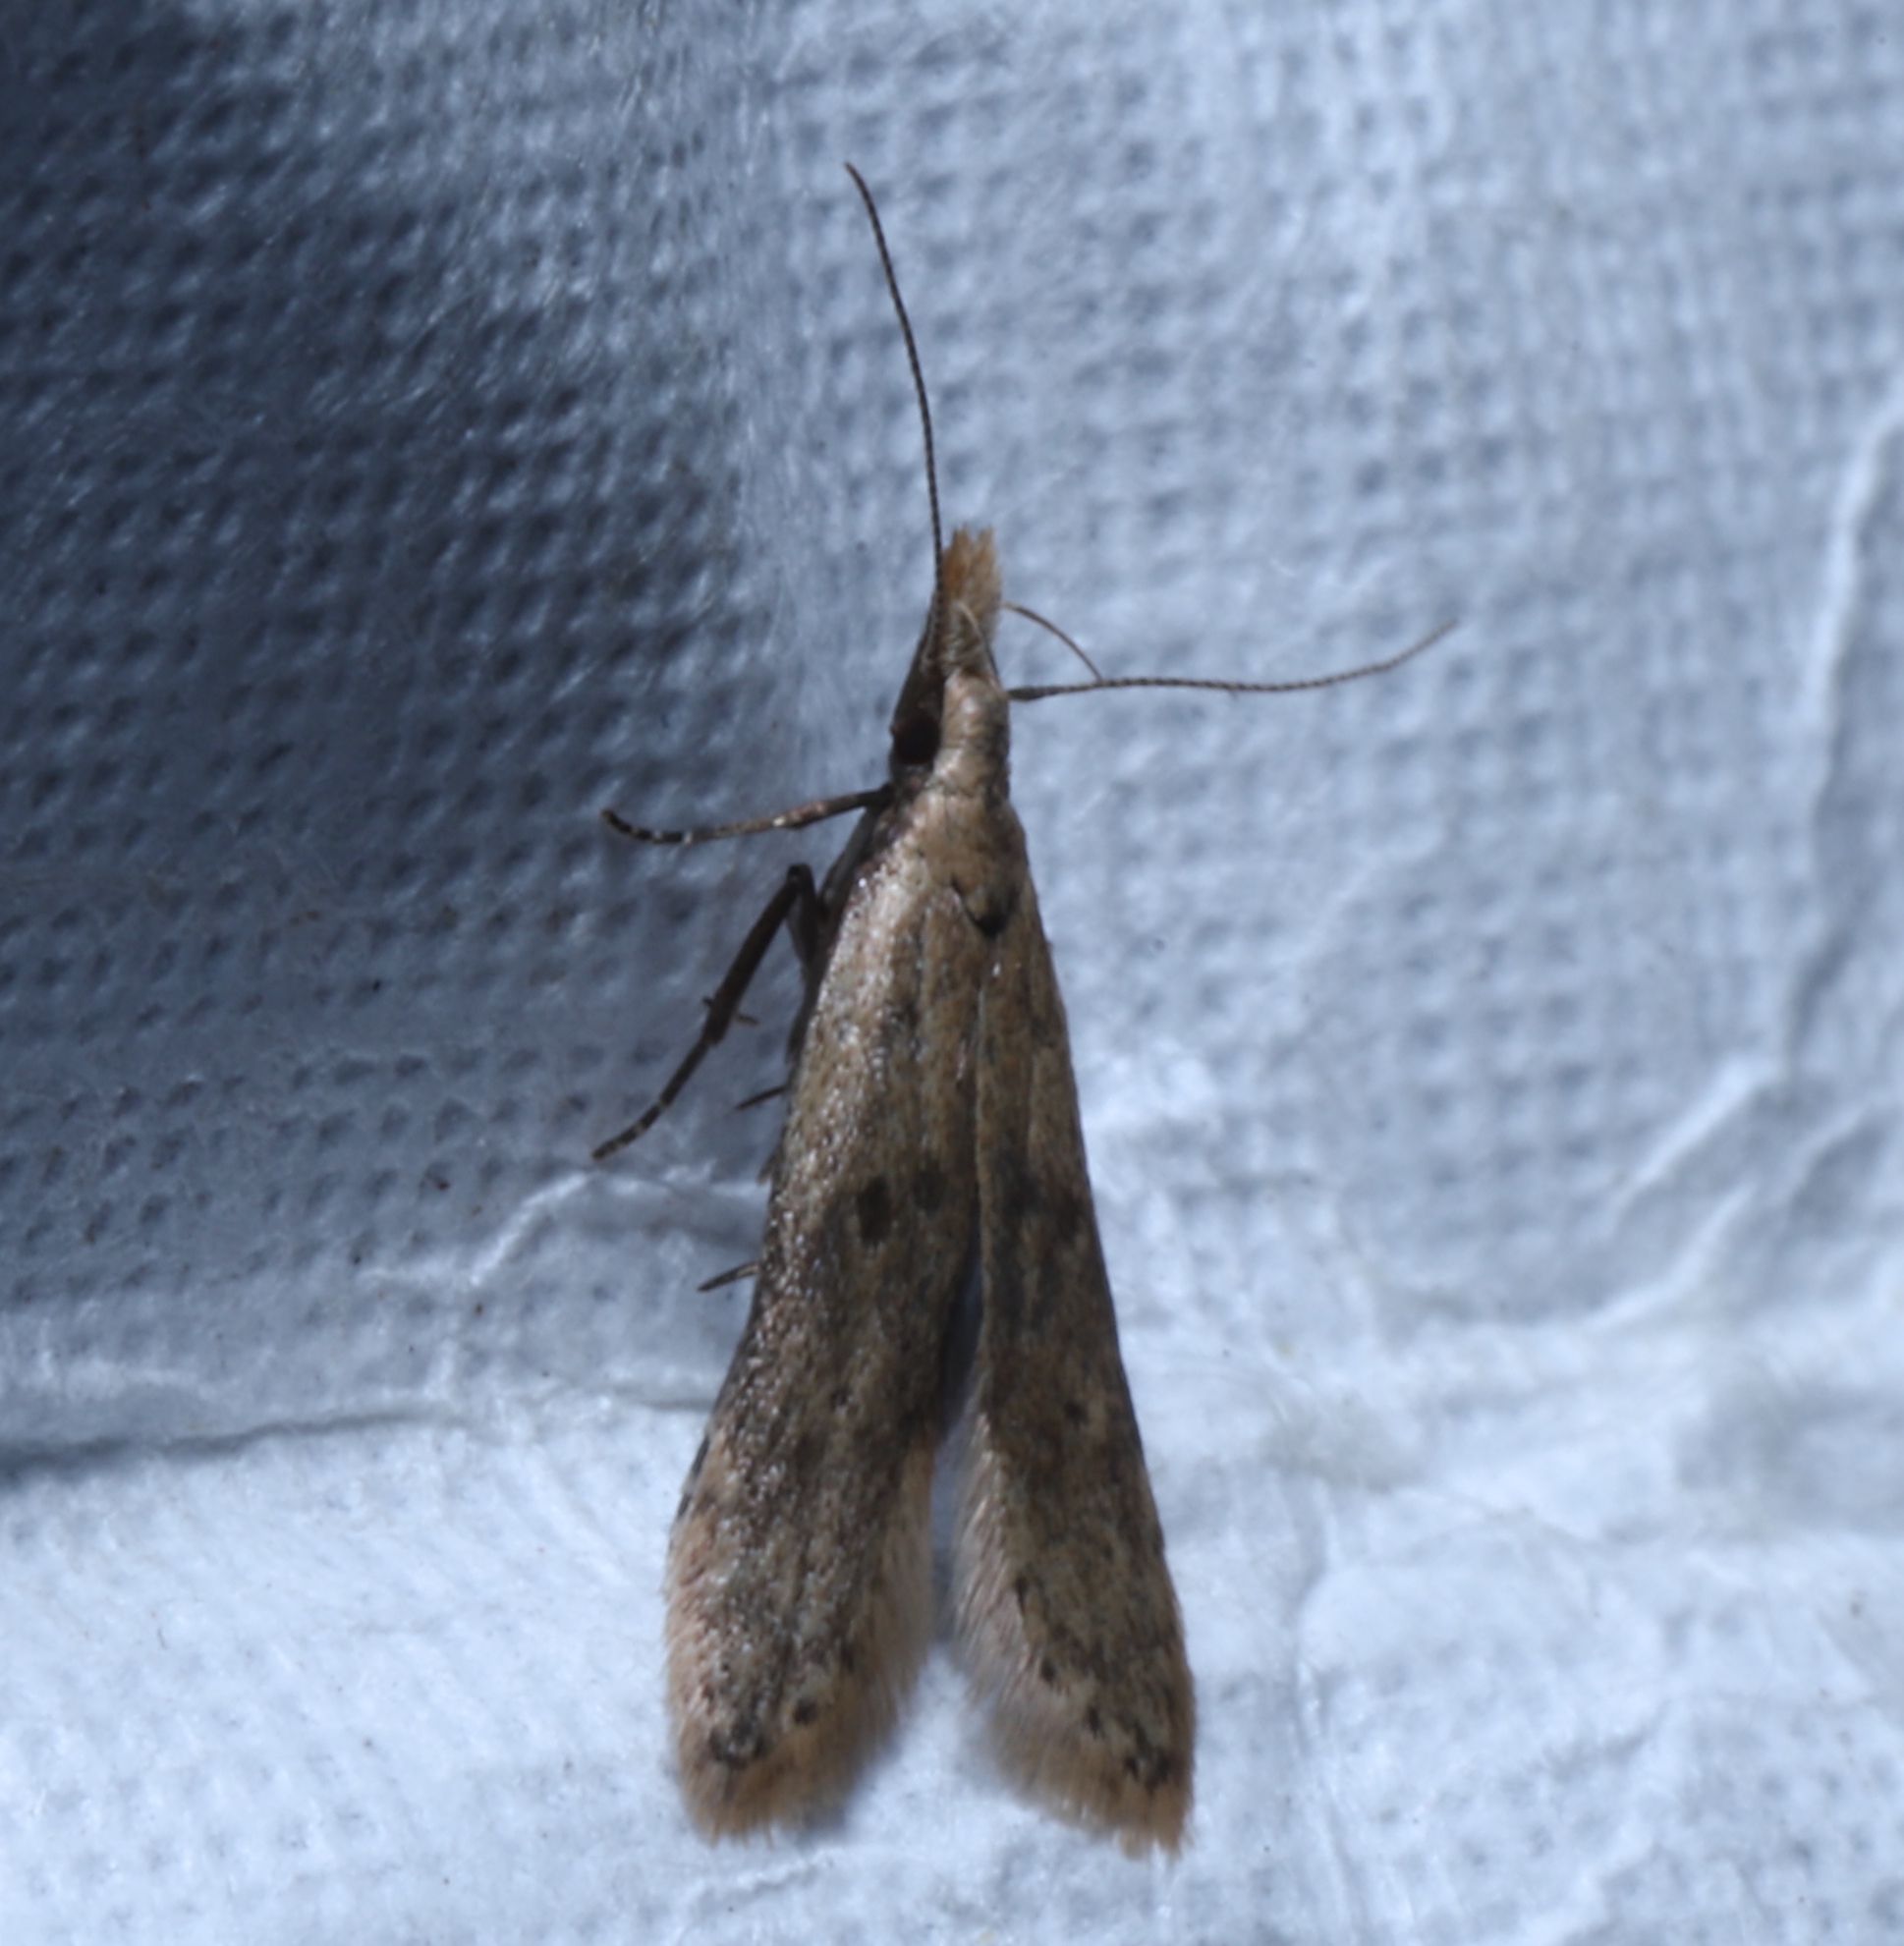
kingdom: Animalia
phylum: Arthropoda
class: Insecta
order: Lepidoptera
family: Gelechiidae
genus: Dichomeris
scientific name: Dichomeris punctipennella
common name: Many-spotted dichomeris moth
